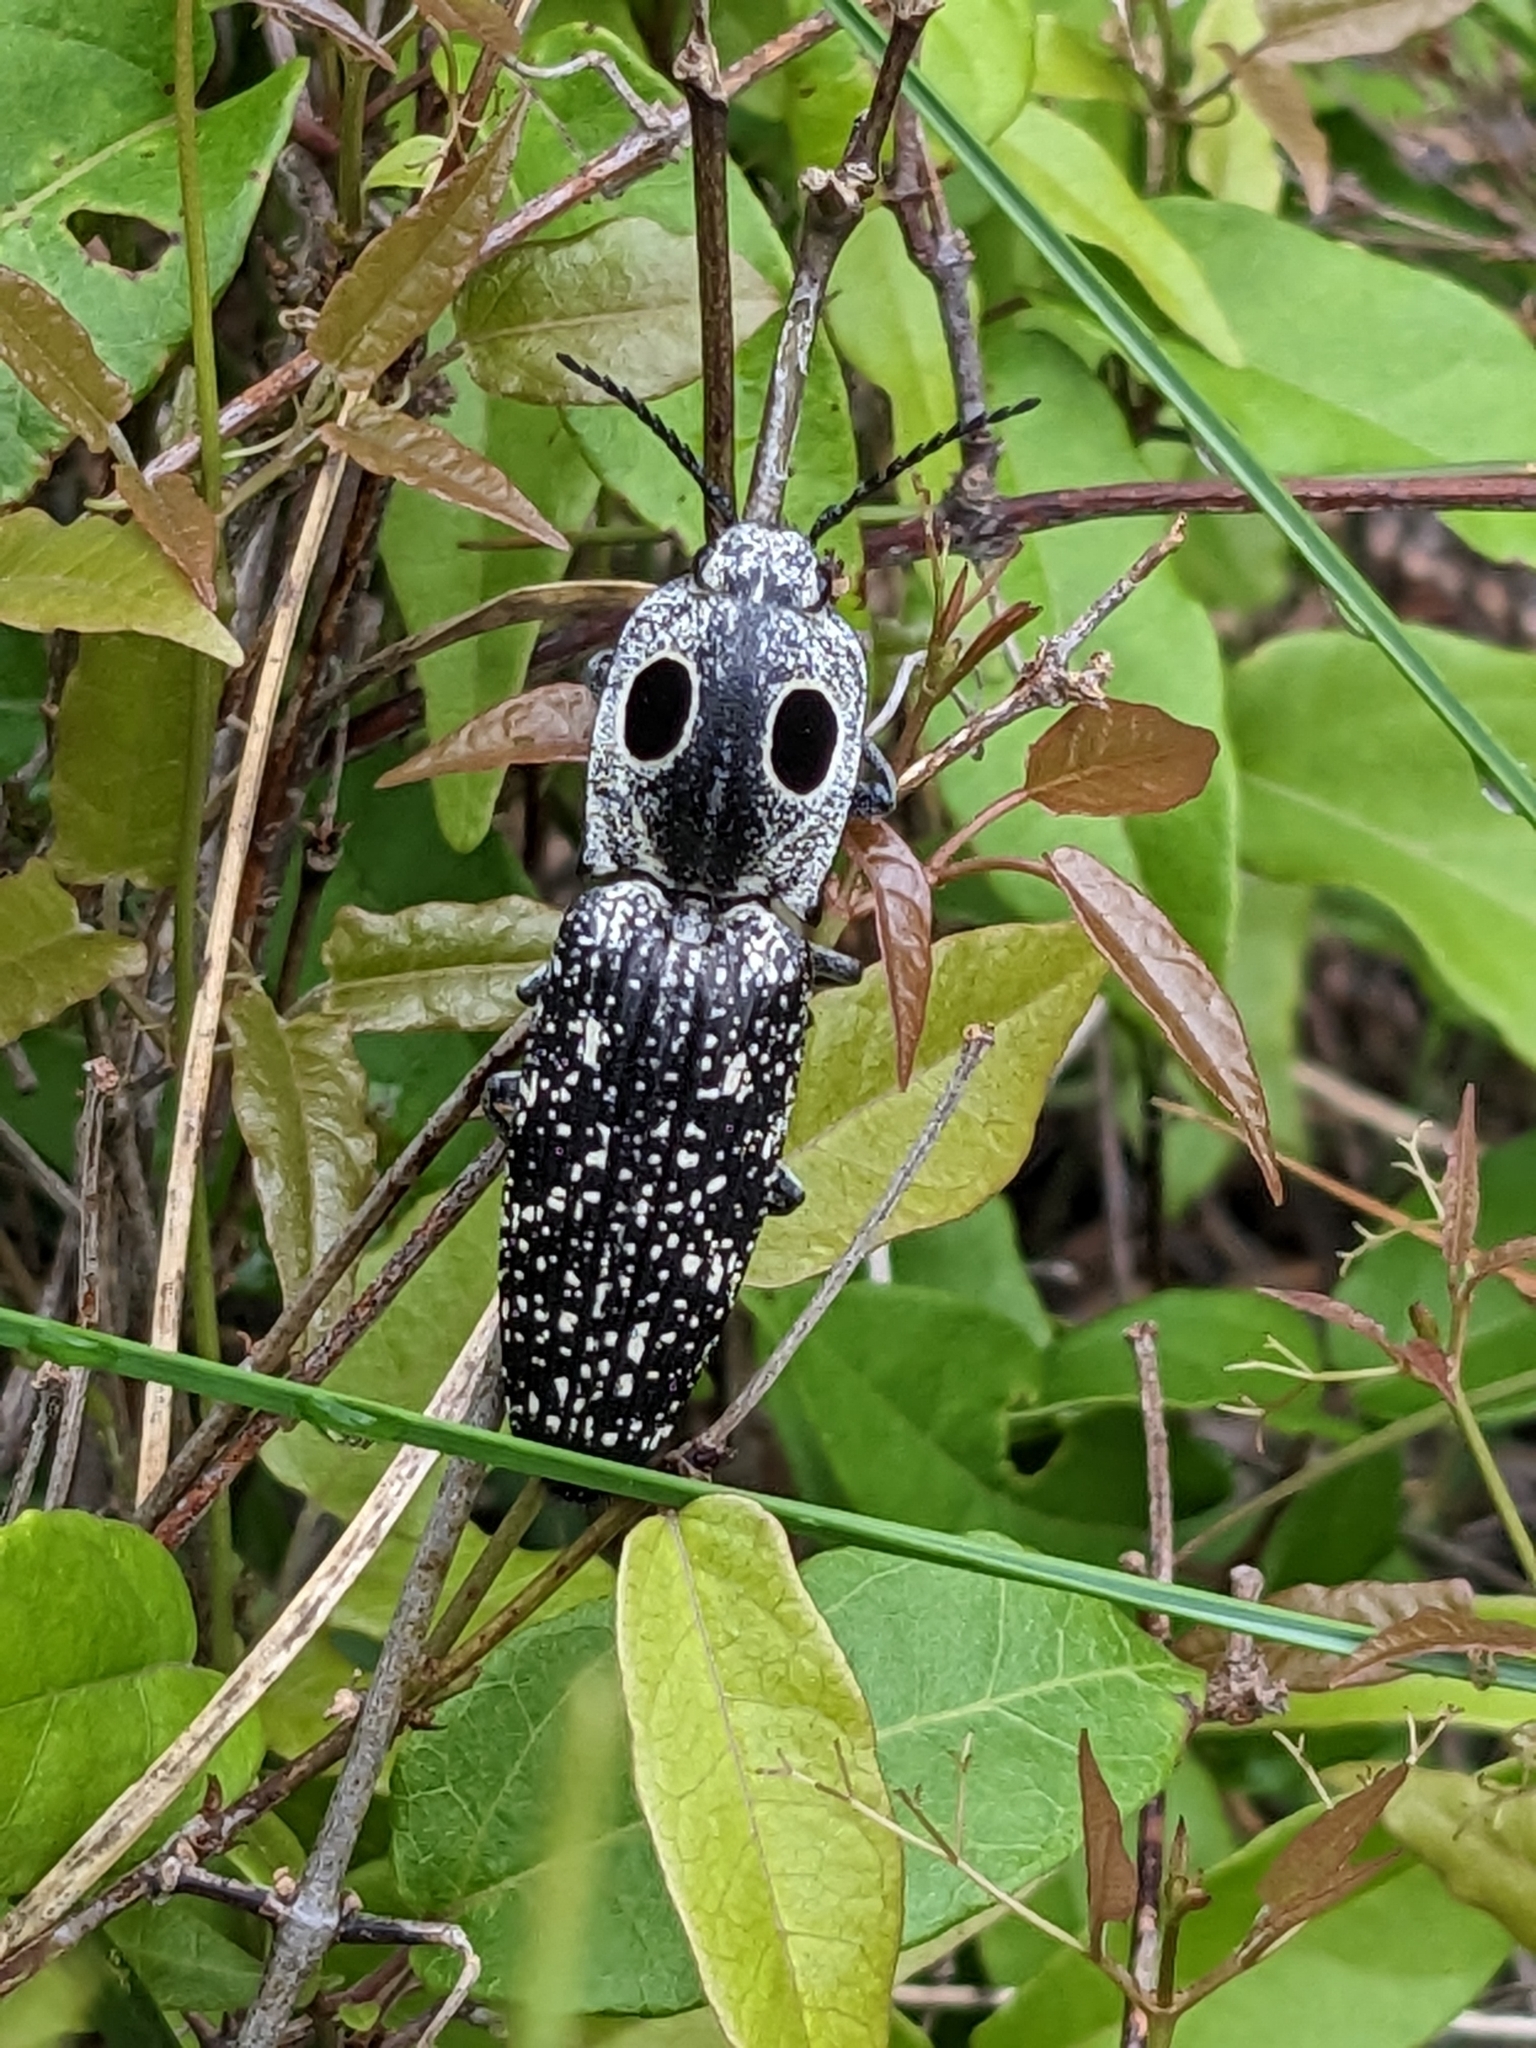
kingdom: Animalia
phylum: Arthropoda
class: Insecta
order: Coleoptera
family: Elateridae
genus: Alaus
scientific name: Alaus oculatus
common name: Eastern eyed click beetle
